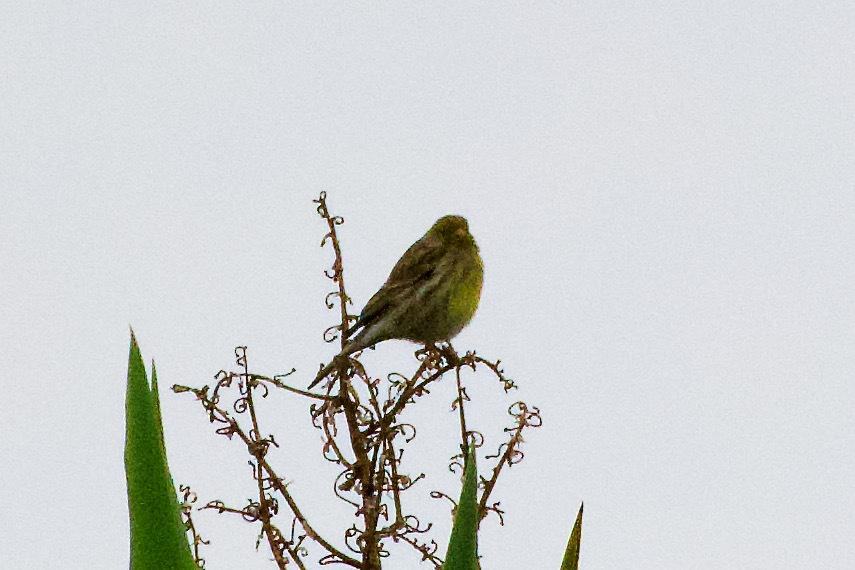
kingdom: Animalia
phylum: Chordata
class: Aves
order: Passeriformes
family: Fringillidae
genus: Serinus
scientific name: Serinus canaria
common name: Atlantic canary
